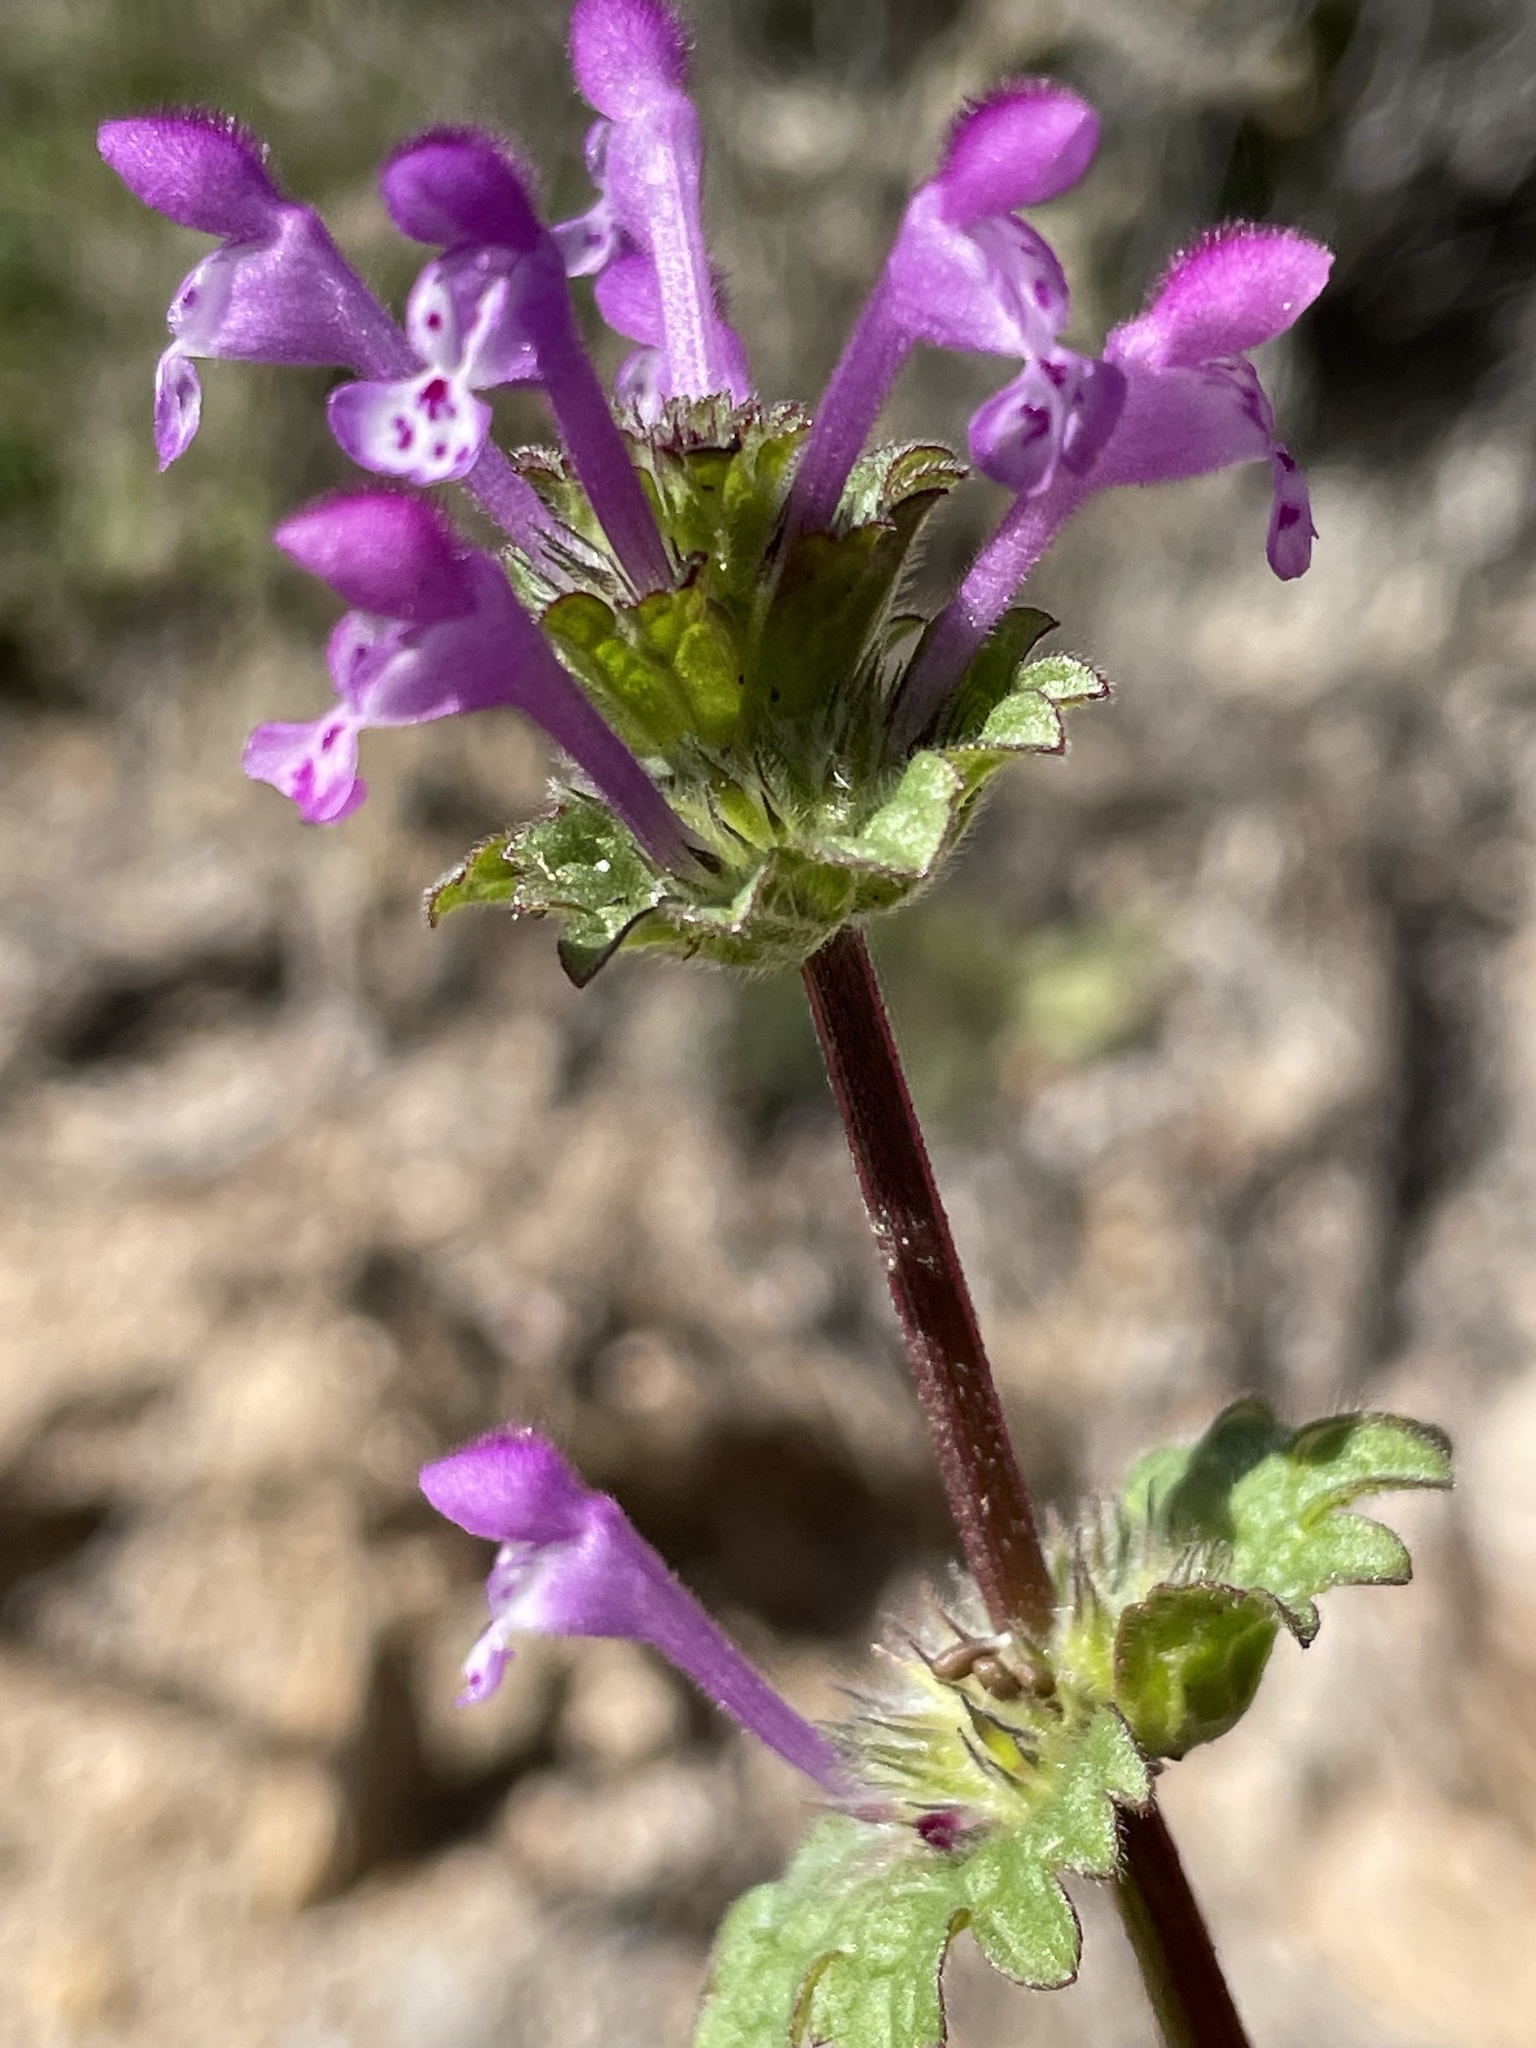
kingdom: Plantae
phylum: Tracheophyta
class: Magnoliopsida
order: Lamiales
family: Lamiaceae
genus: Lamium
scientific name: Lamium amplexicaule
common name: Henbit dead-nettle
